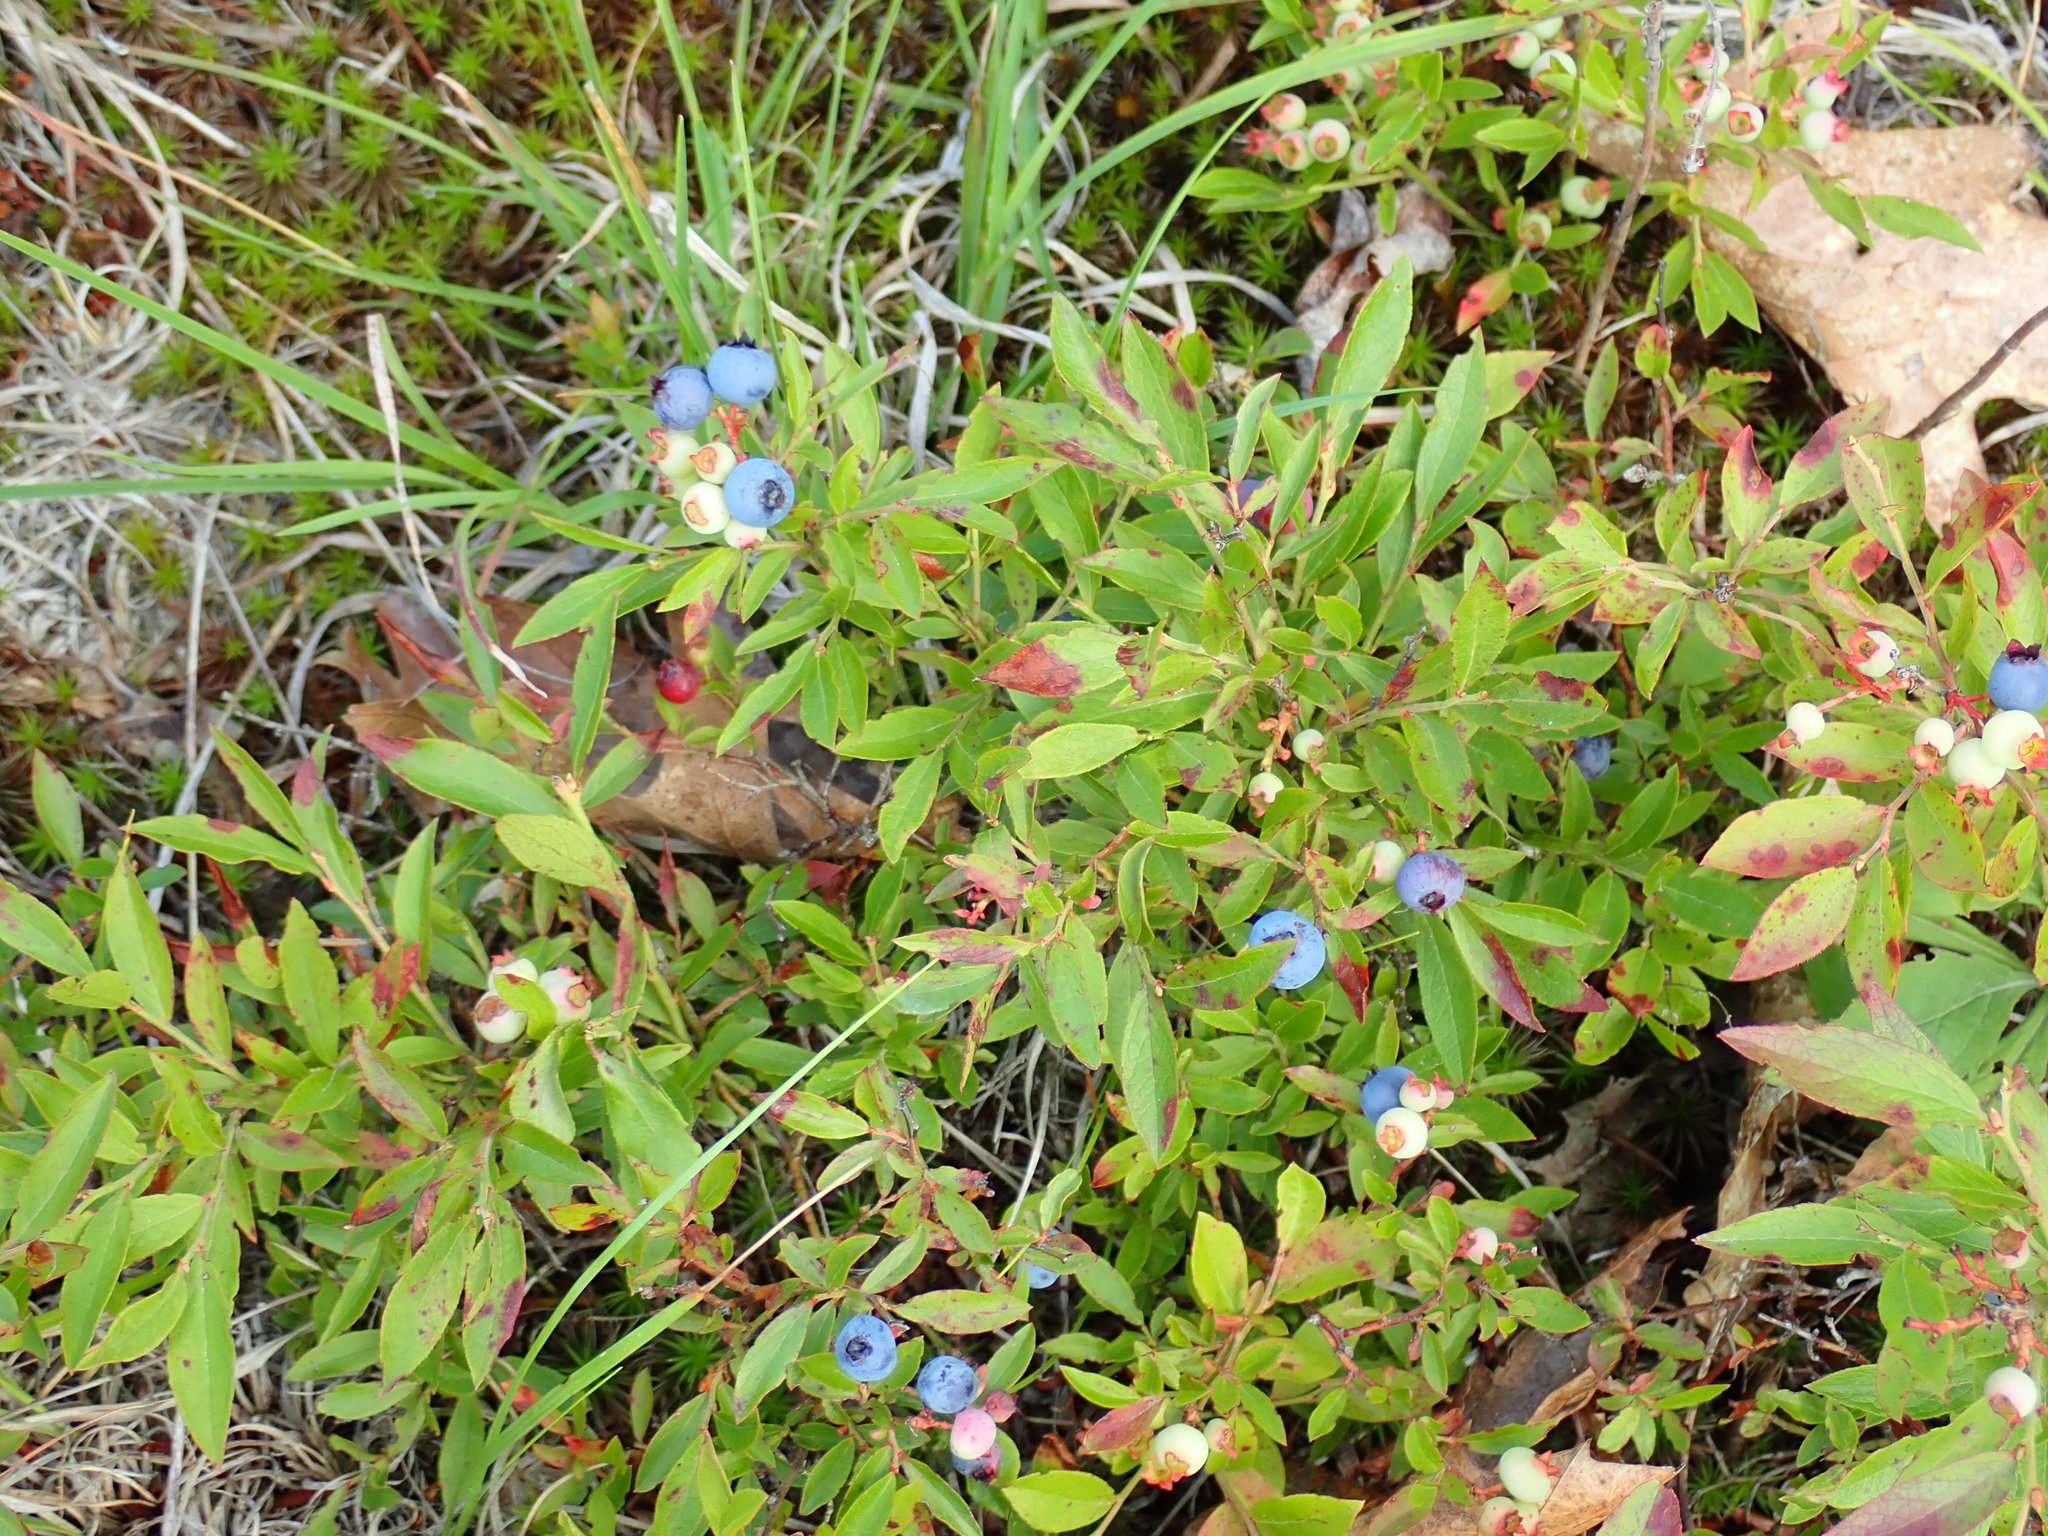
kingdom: Plantae
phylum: Tracheophyta
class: Magnoliopsida
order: Ericales
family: Ericaceae
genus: Vaccinium
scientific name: Vaccinium angustifolium
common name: Early lowbush blueberry
